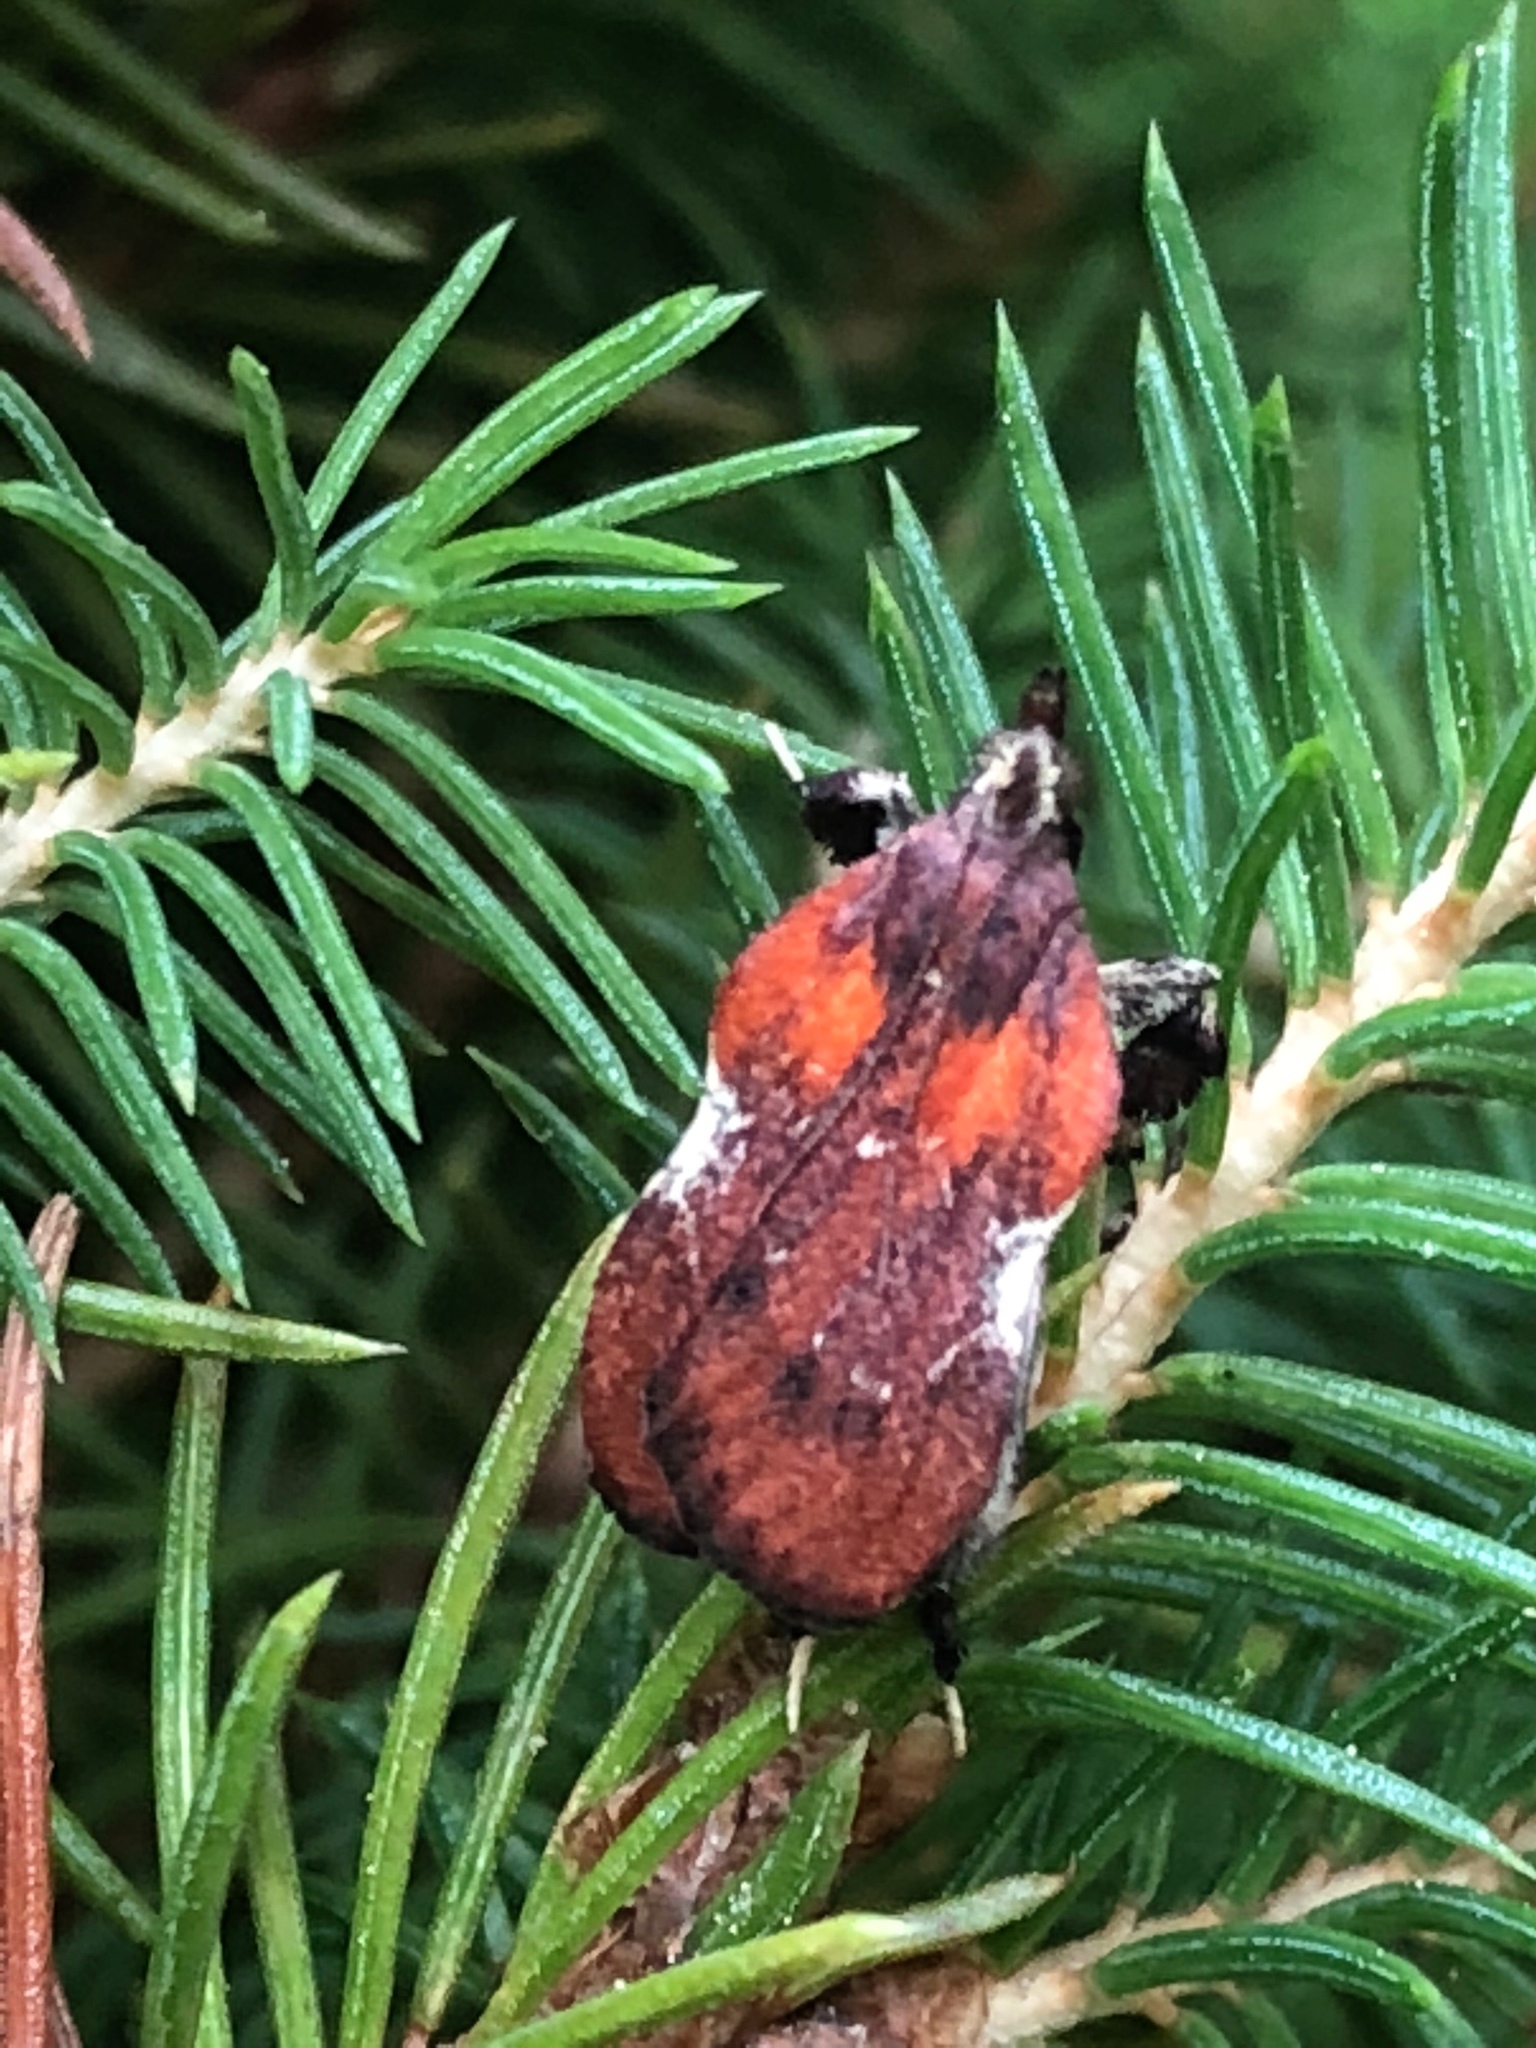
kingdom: Animalia
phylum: Arthropoda
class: Insecta
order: Lepidoptera
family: Pyralidae
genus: Galasa
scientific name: Galasa nigrinodis
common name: Boxwood leaftier moth
